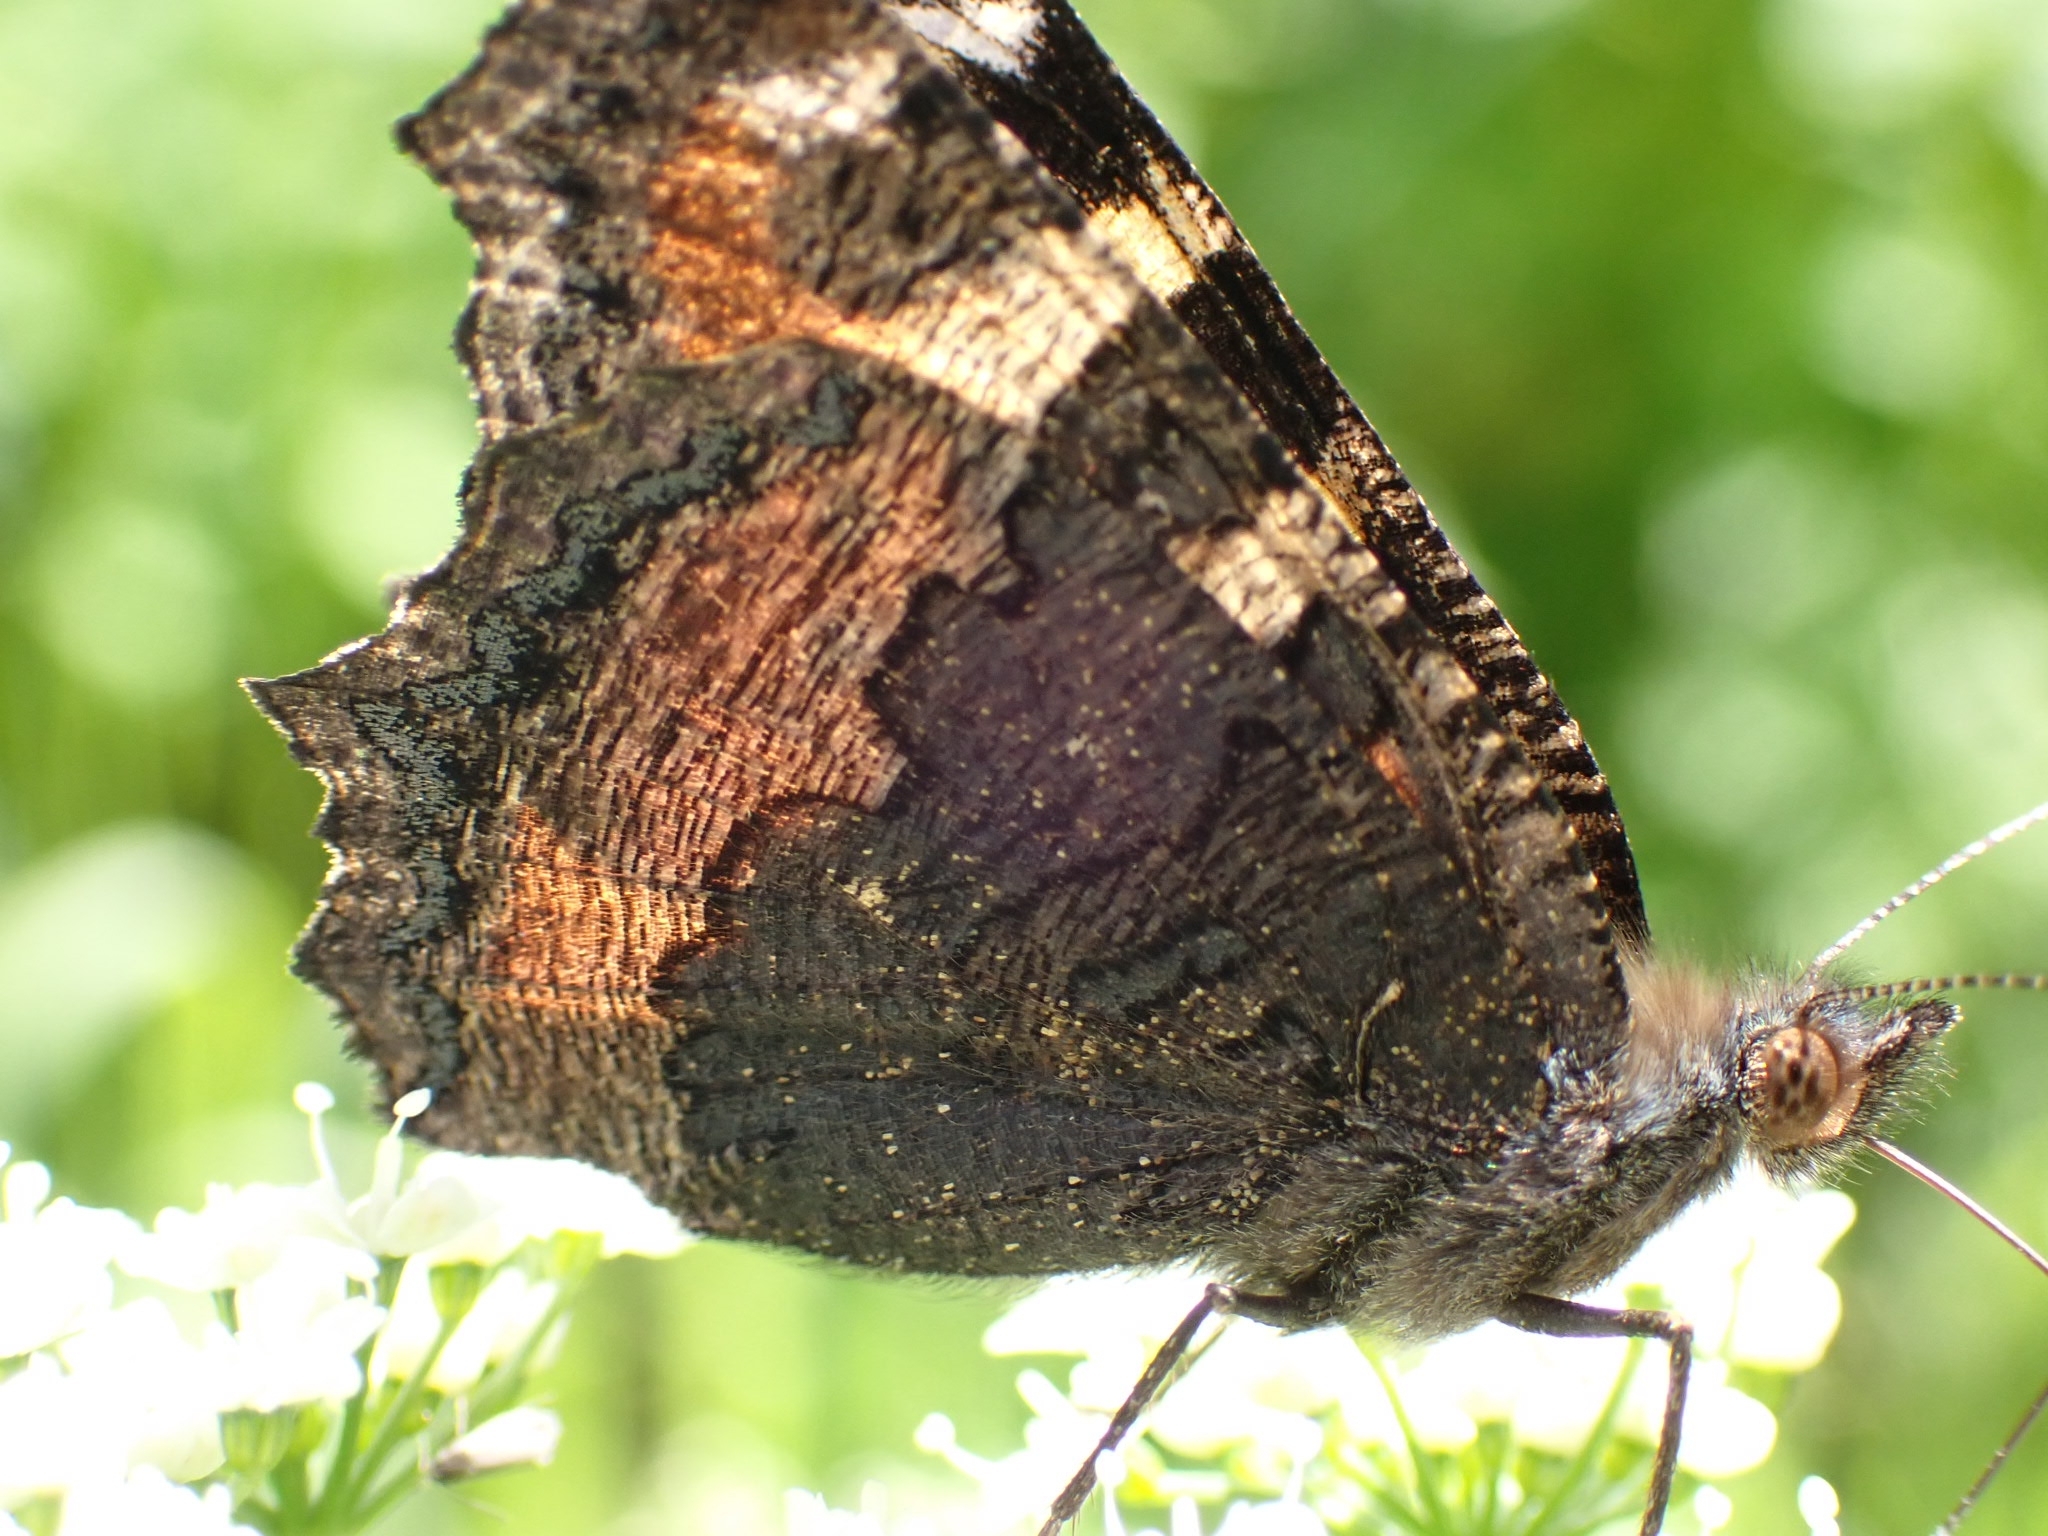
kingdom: Animalia
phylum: Arthropoda
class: Insecta
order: Lepidoptera
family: Nymphalidae
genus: Aglais
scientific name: Aglais urticae
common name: Small tortoiseshell
